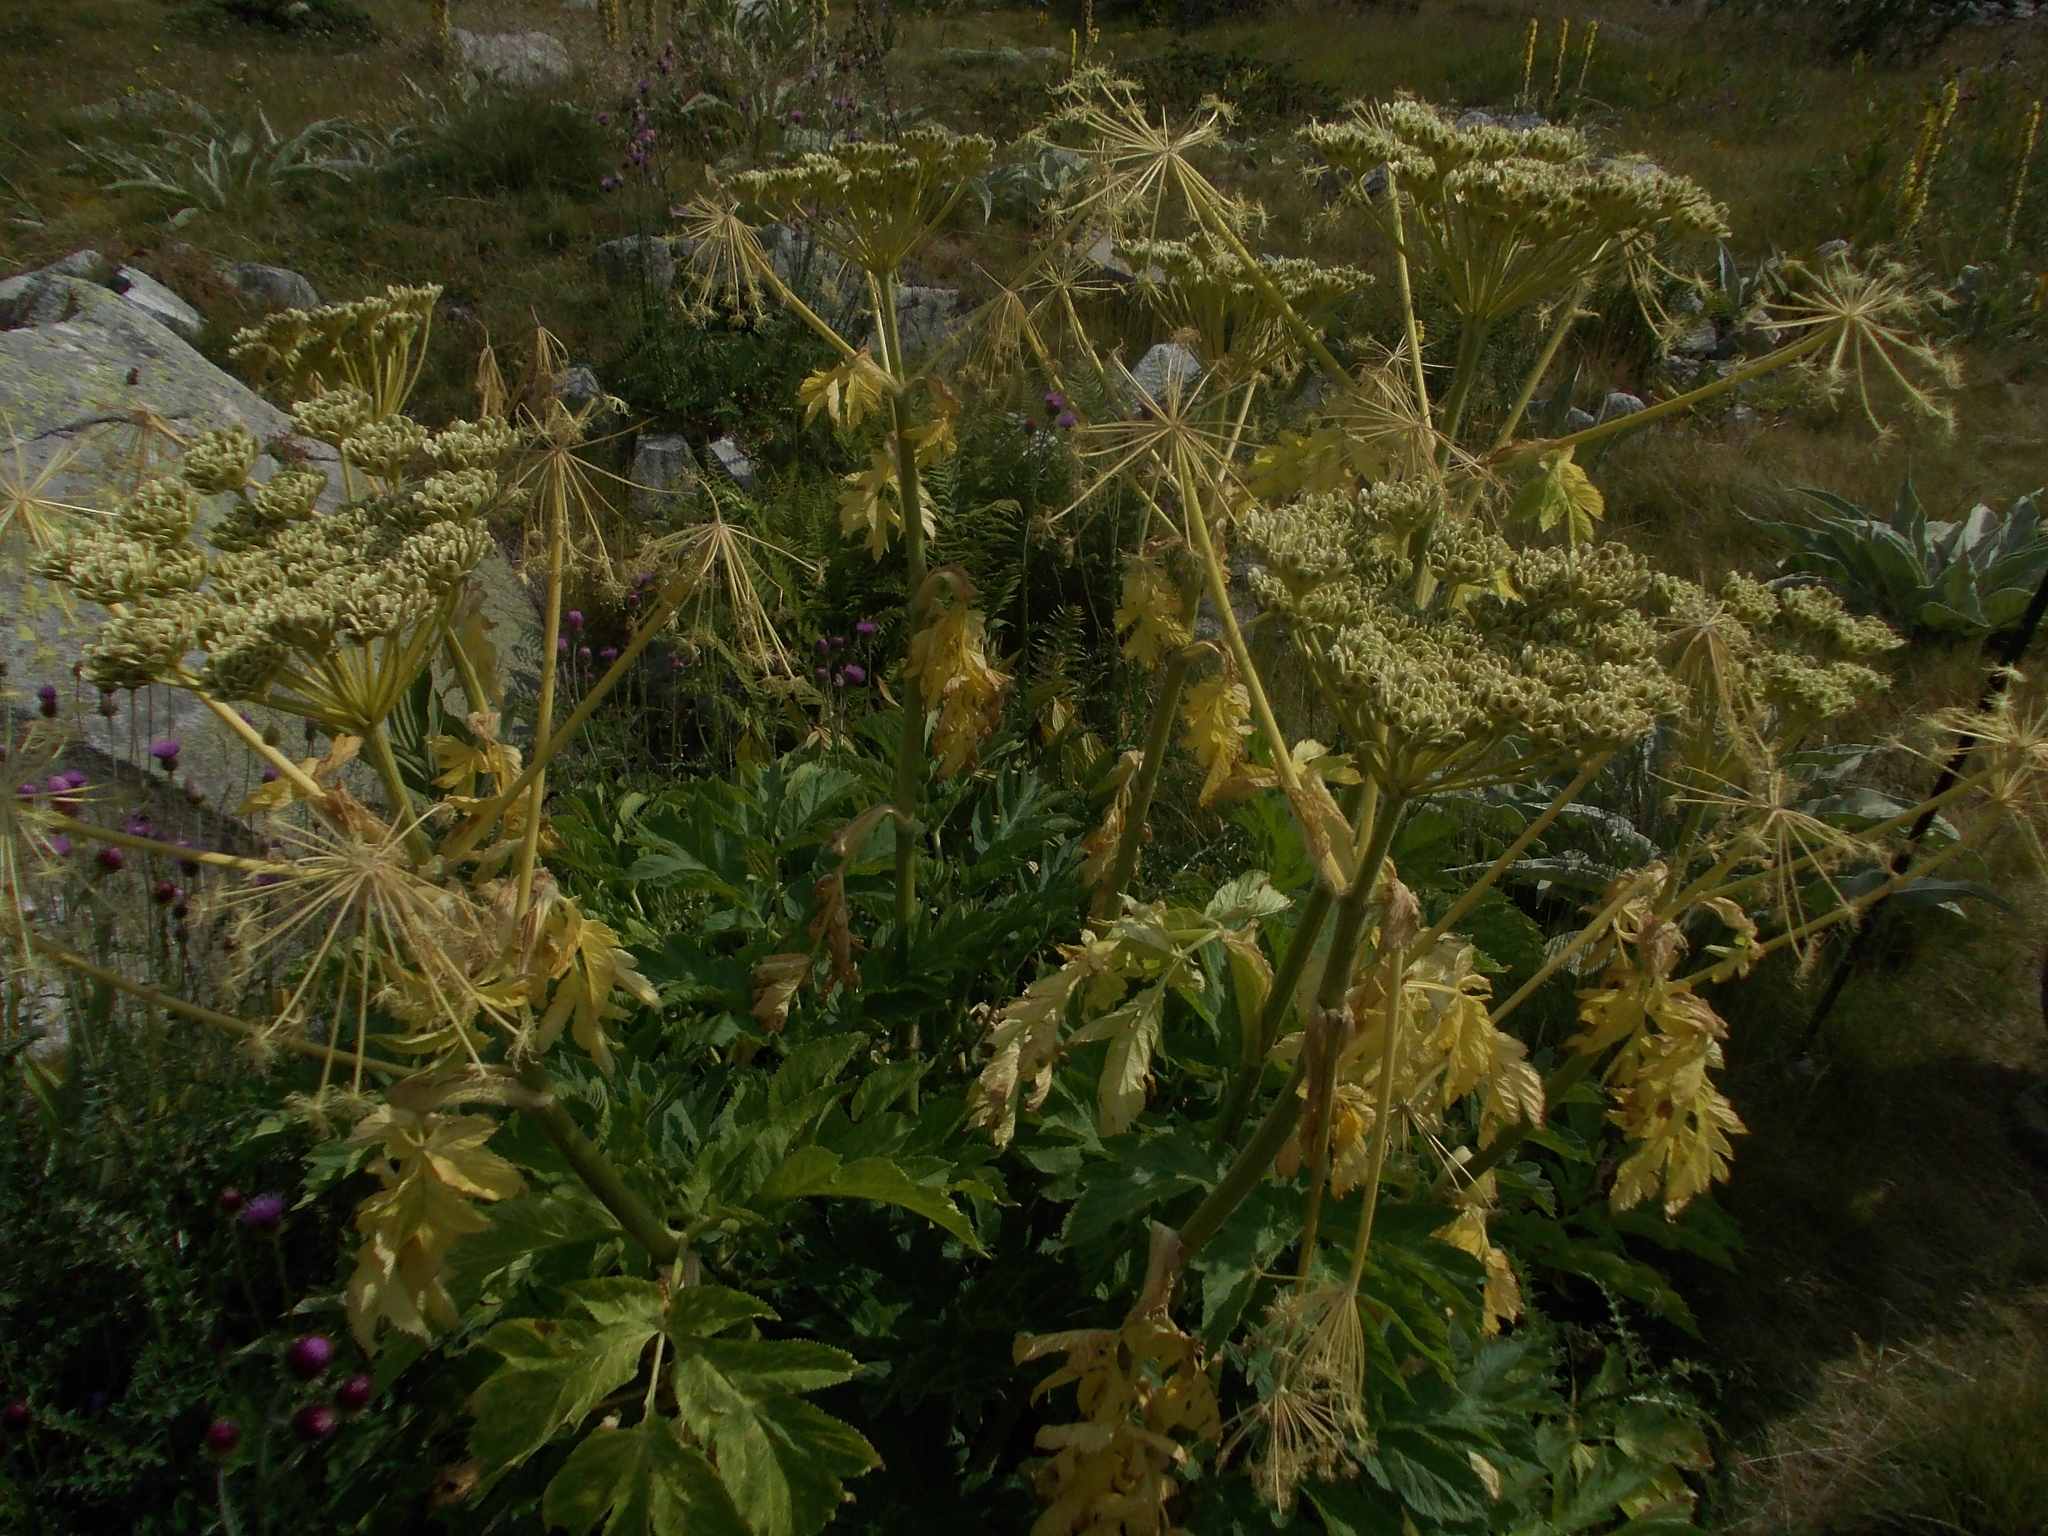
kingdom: Plantae
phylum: Tracheophyta
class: Magnoliopsida
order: Apiales
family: Apiaceae
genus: Heracleum
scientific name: Heracleum sphondylium
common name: Hogweed
